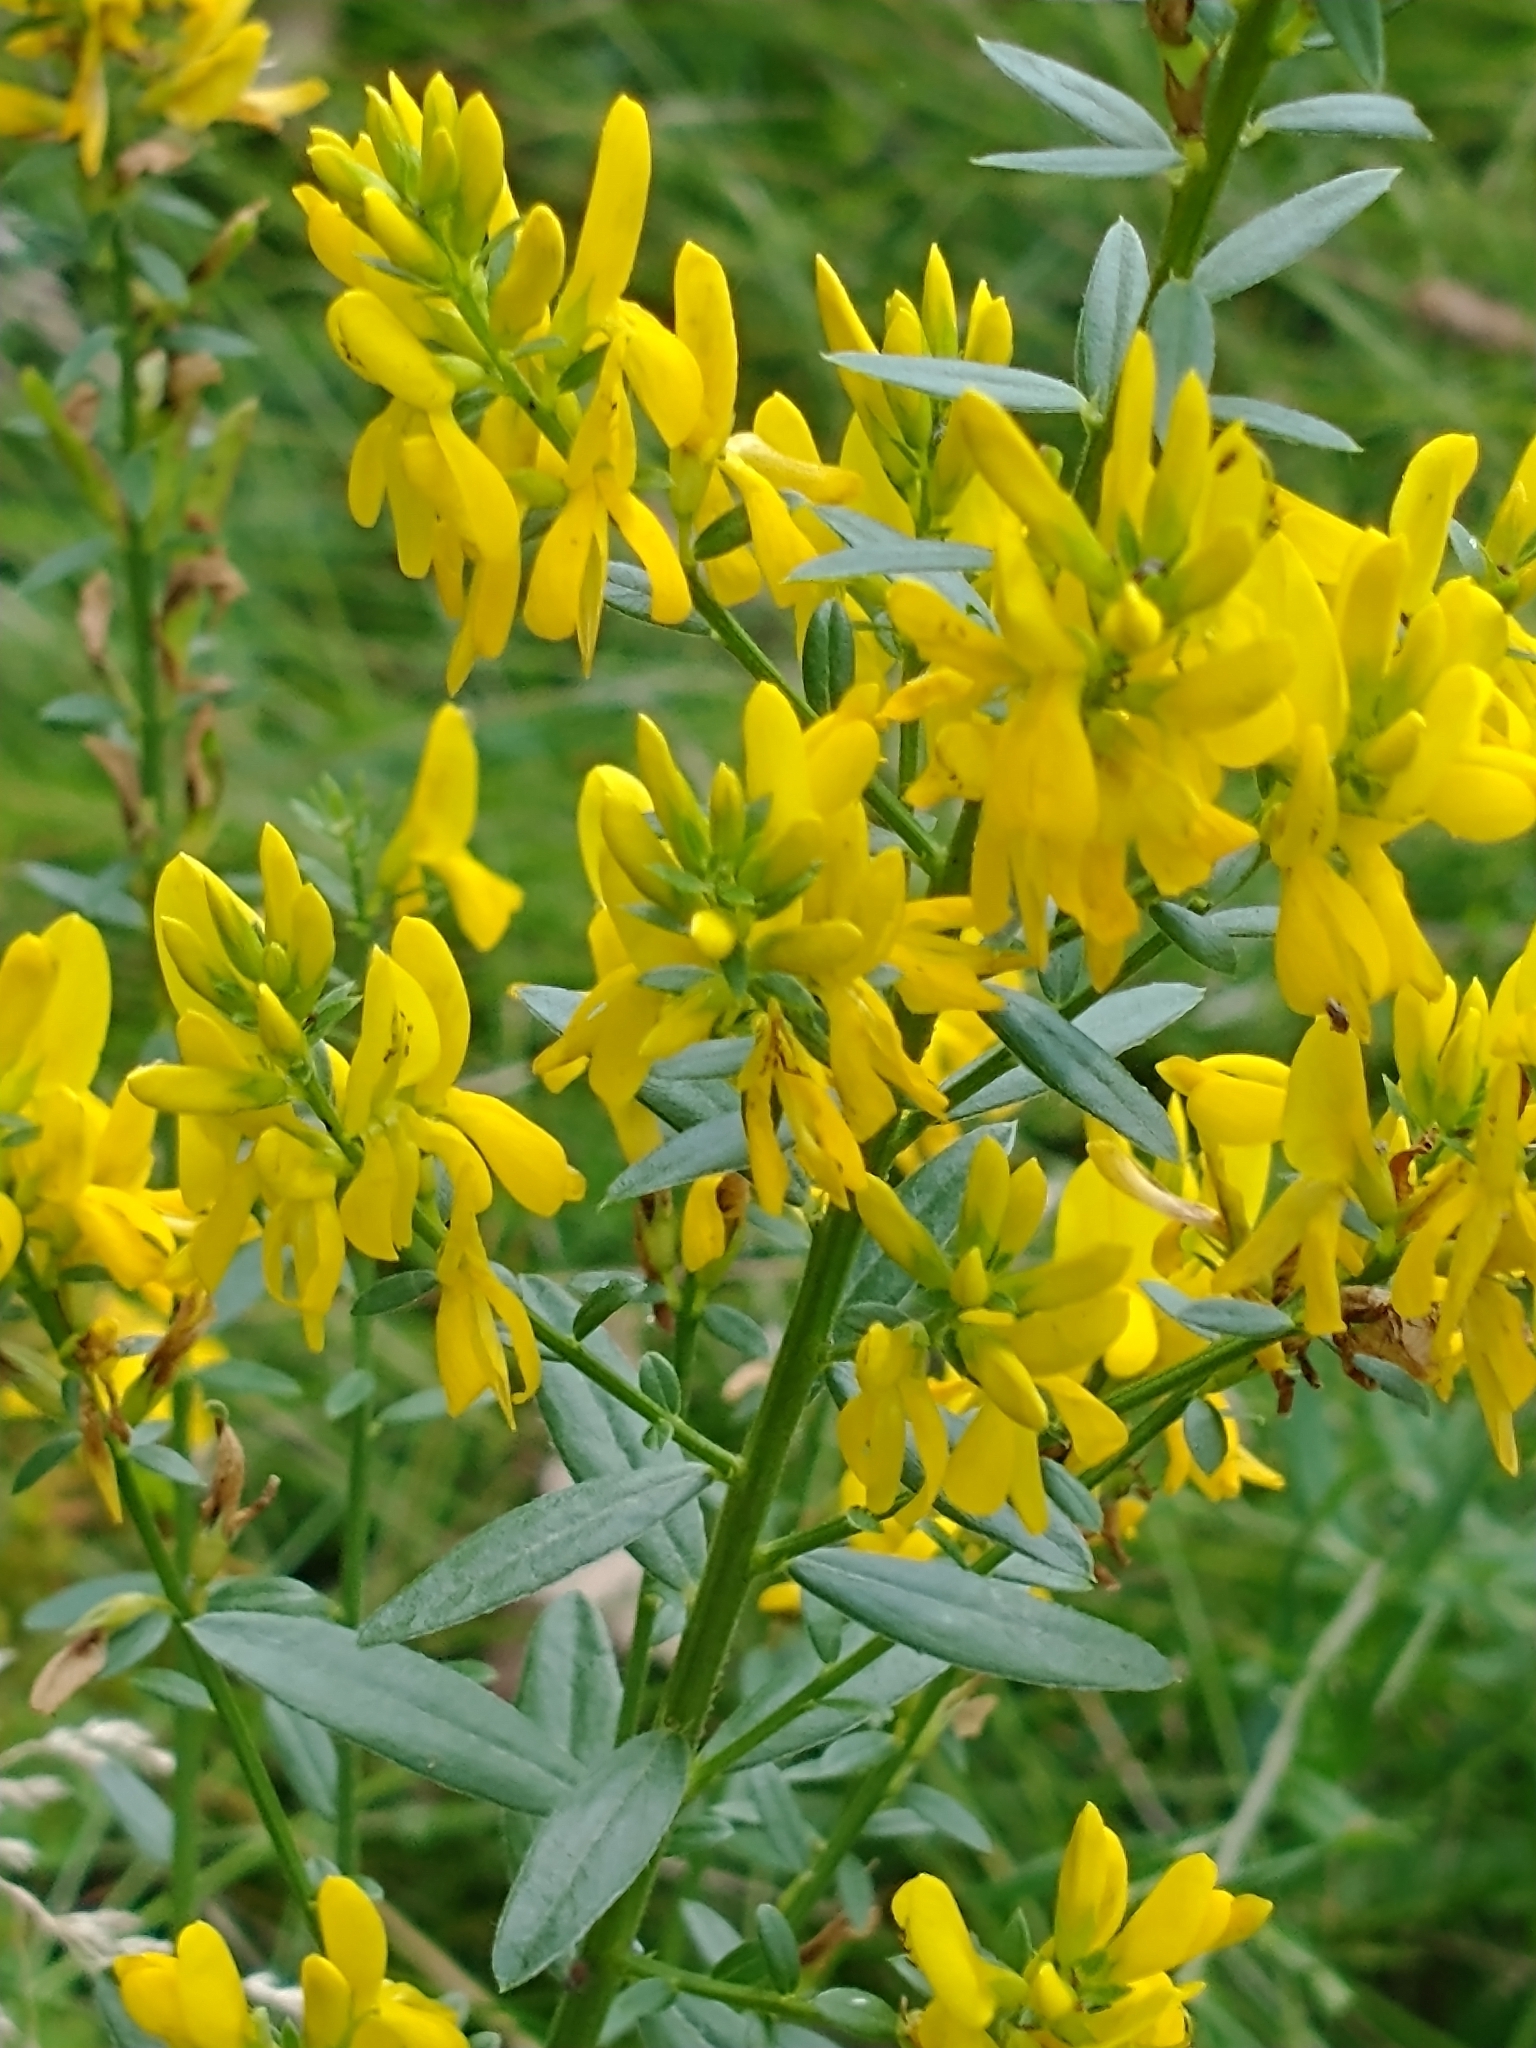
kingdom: Plantae
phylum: Tracheophyta
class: Magnoliopsida
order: Fabales
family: Fabaceae
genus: Genista
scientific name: Genista tinctoria
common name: Dyer's greenweed
